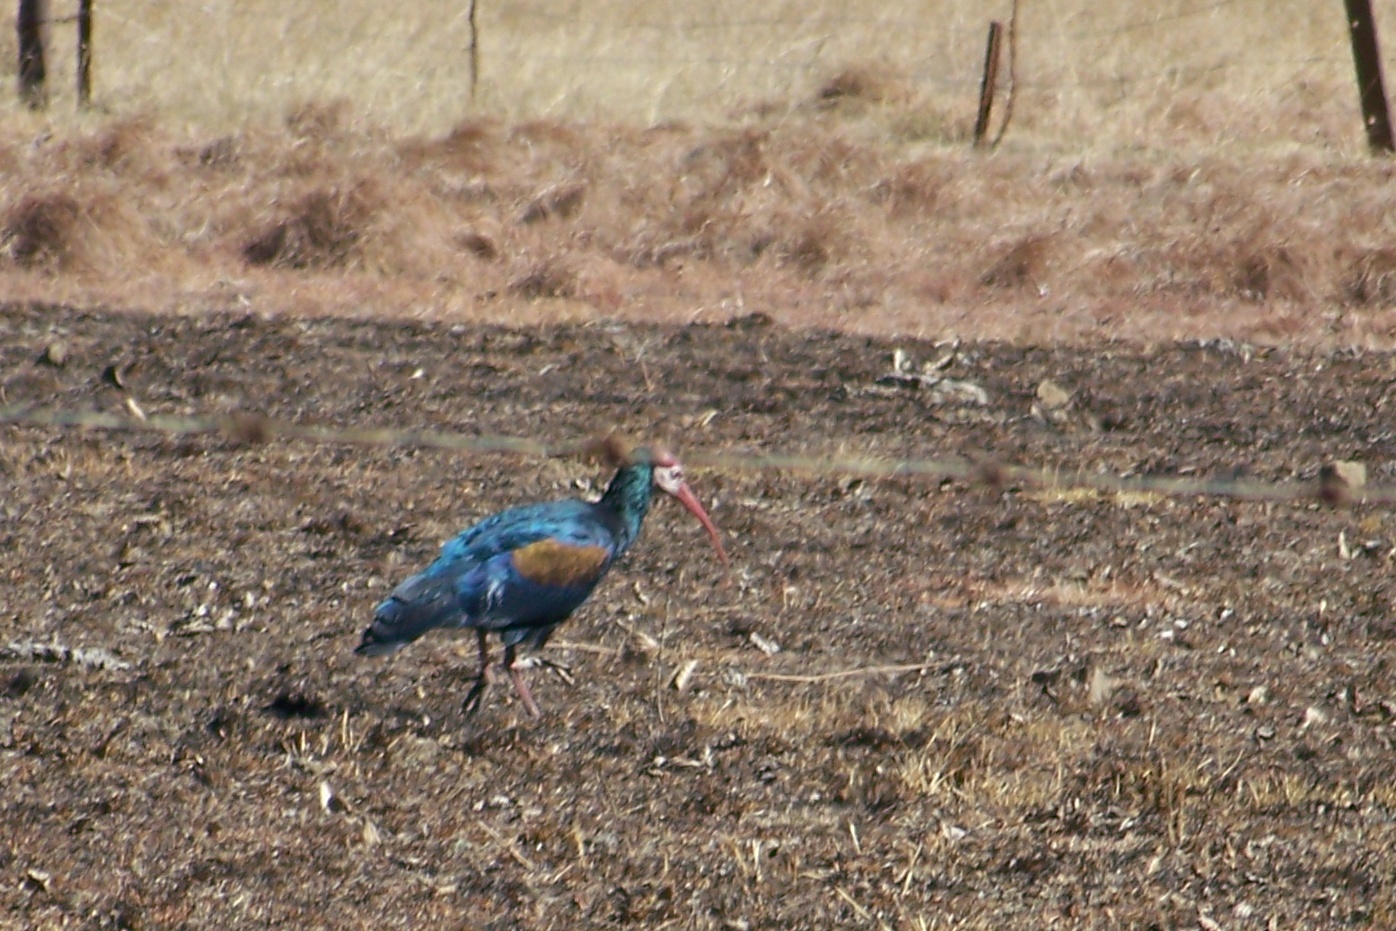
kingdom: Animalia
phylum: Chordata
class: Aves
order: Pelecaniformes
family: Threskiornithidae
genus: Geronticus
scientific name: Geronticus calvus
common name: Southern bald ibis
